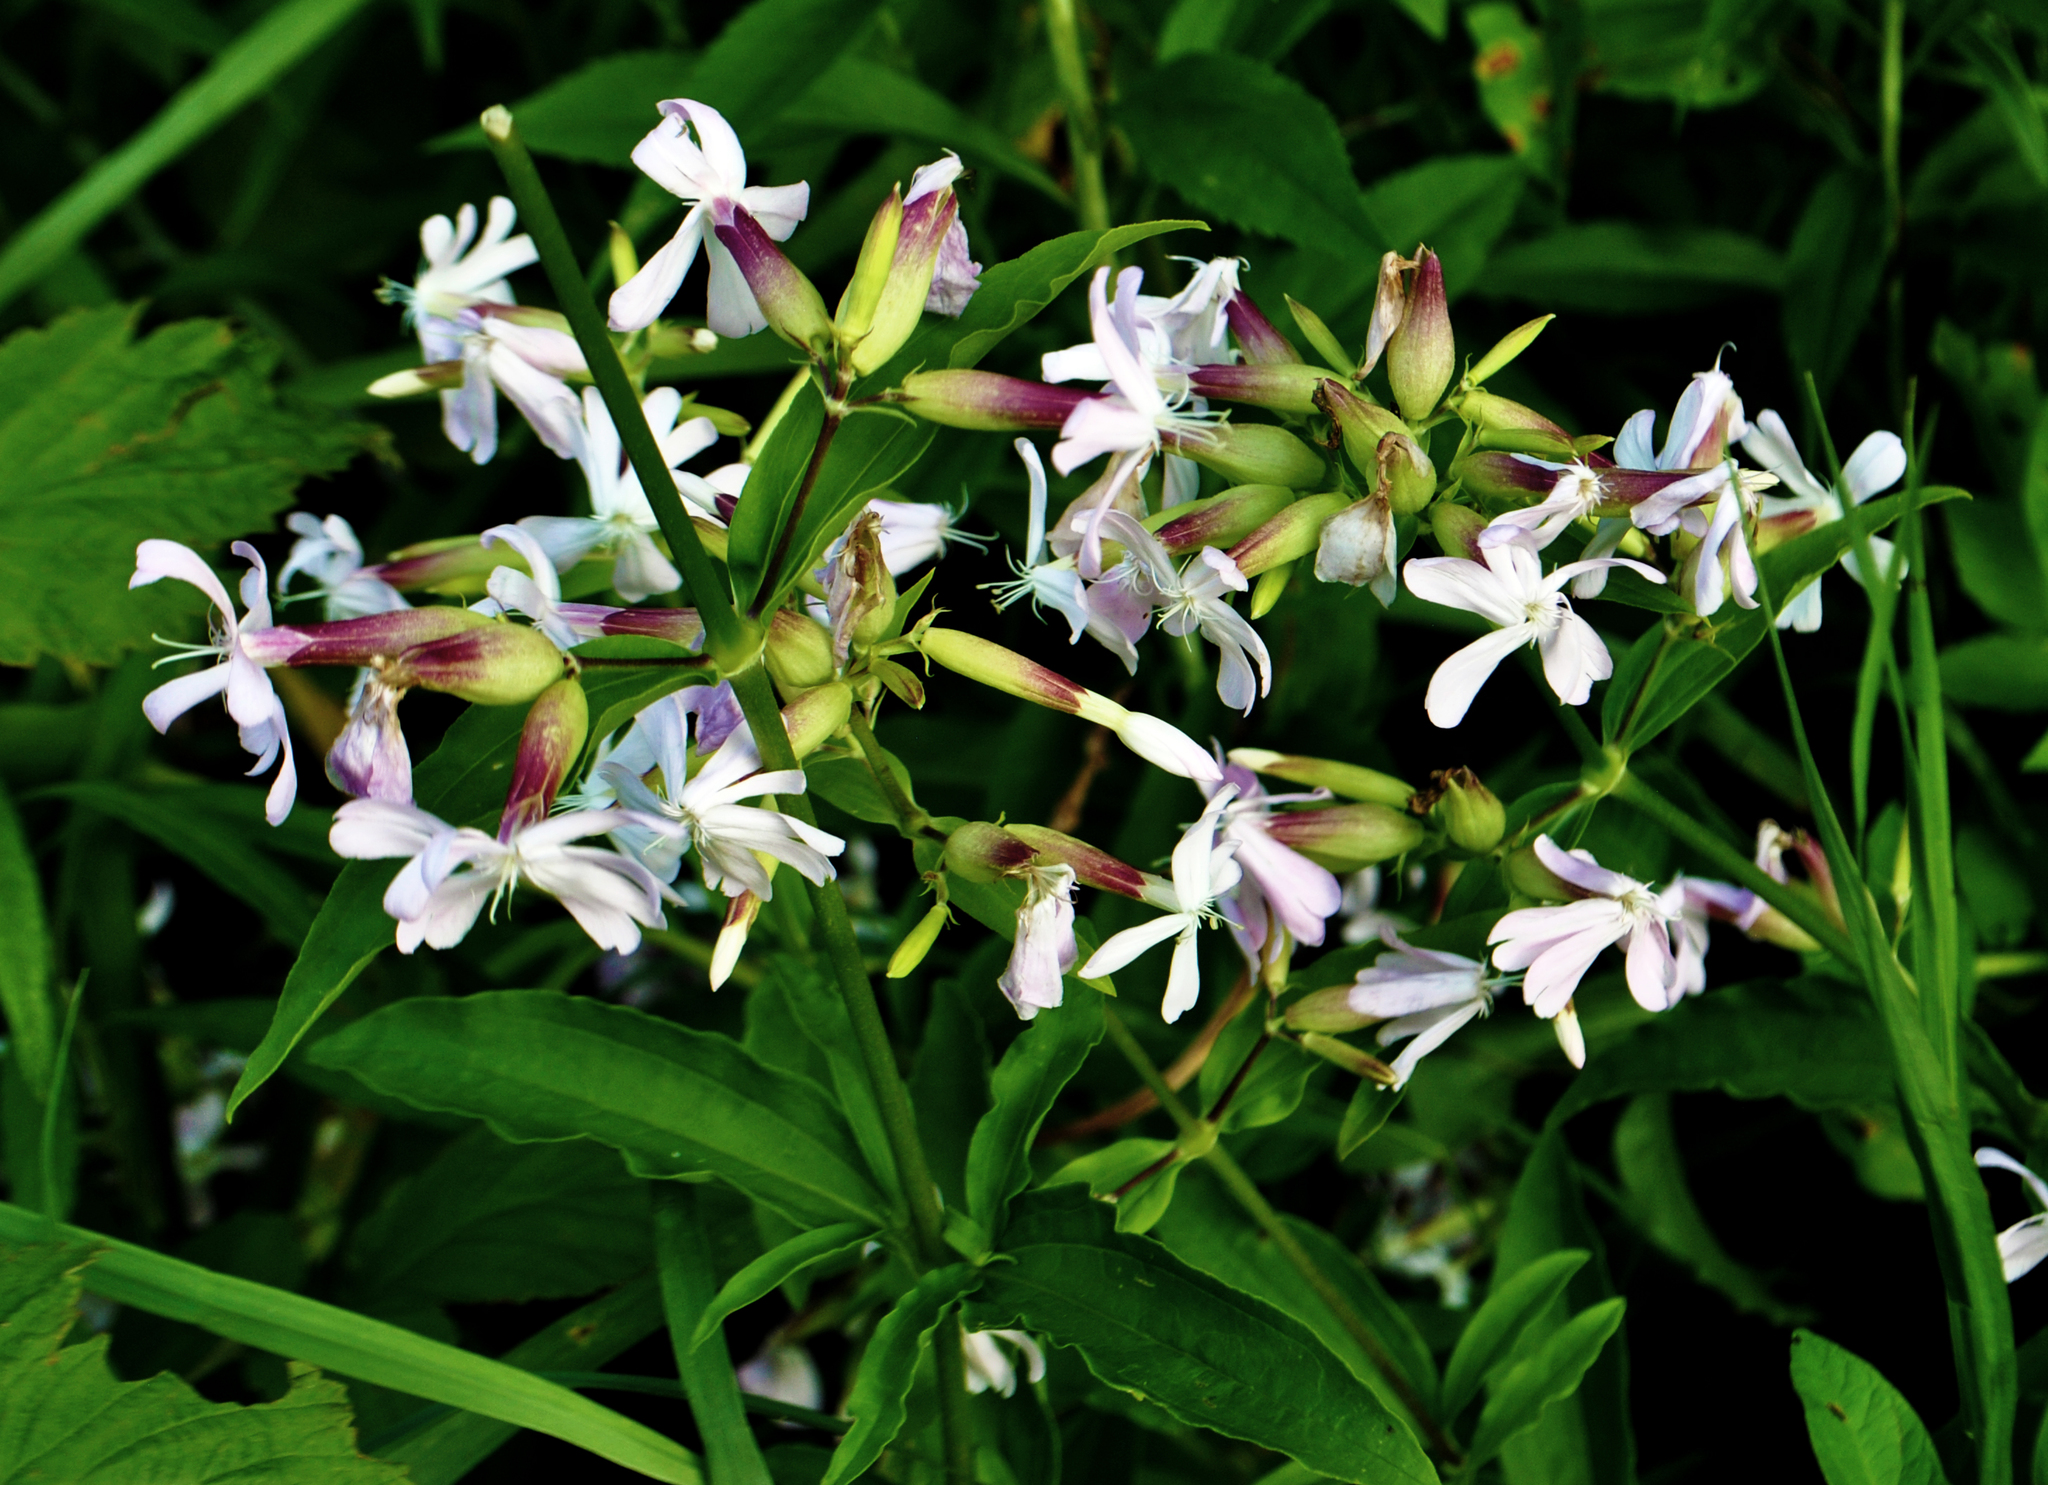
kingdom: Plantae
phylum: Tracheophyta
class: Magnoliopsida
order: Caryophyllales
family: Caryophyllaceae
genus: Saponaria
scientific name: Saponaria officinalis
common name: Soapwort
